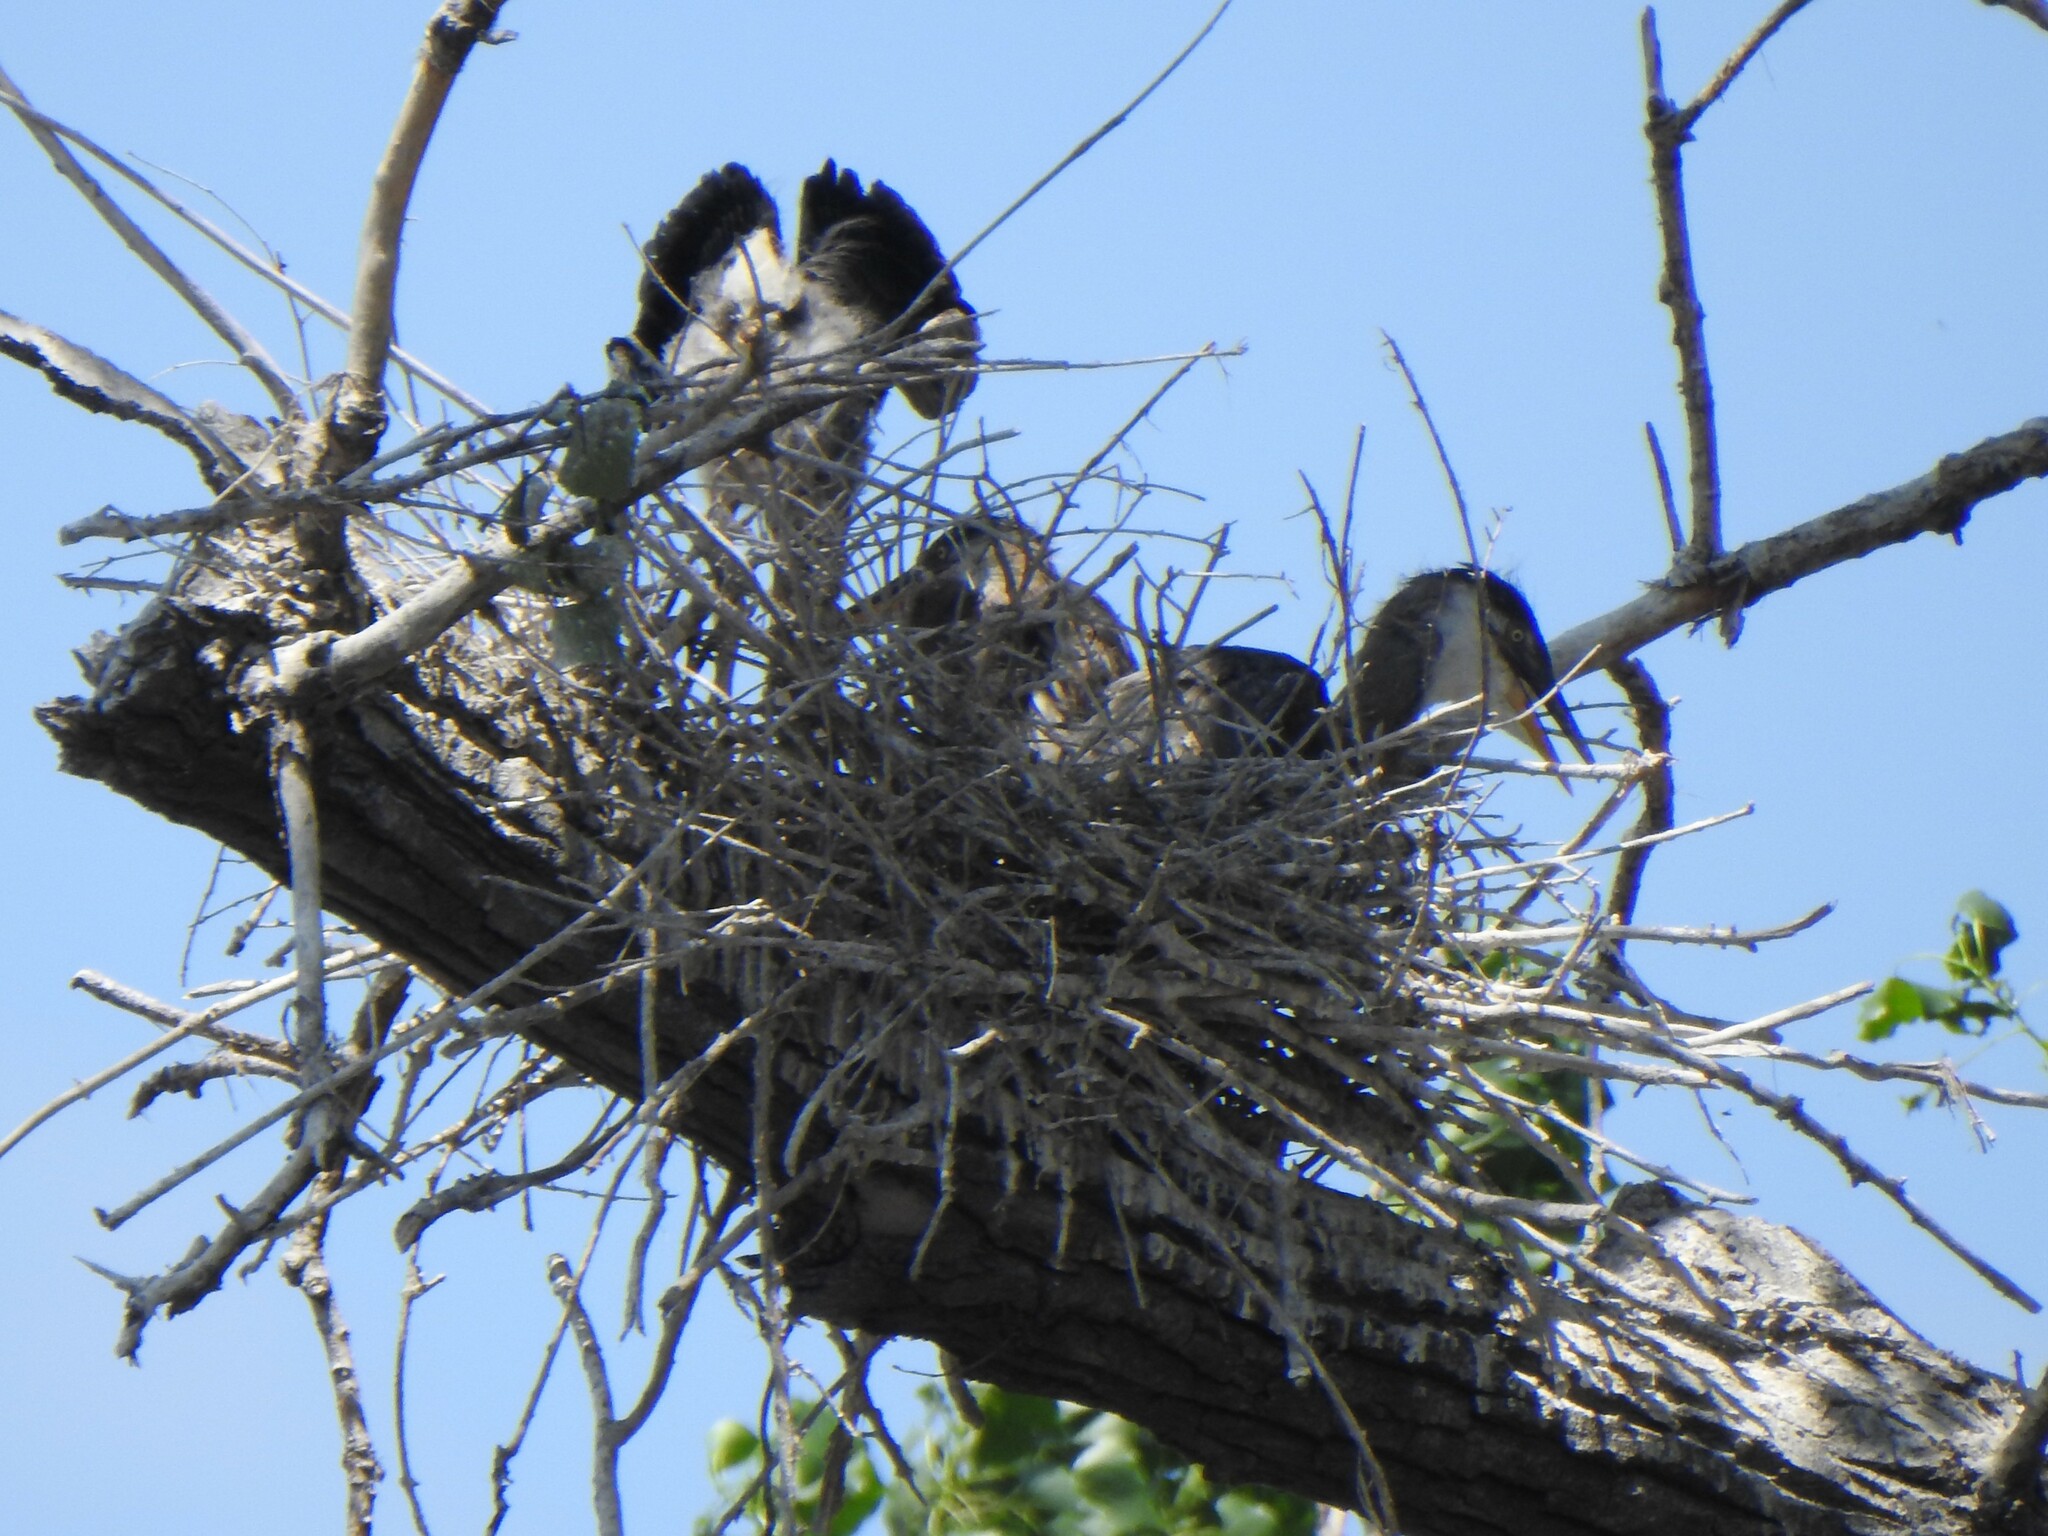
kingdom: Animalia
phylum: Chordata
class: Aves
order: Pelecaniformes
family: Ardeidae
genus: Ardea
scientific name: Ardea herodias
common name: Great blue heron
